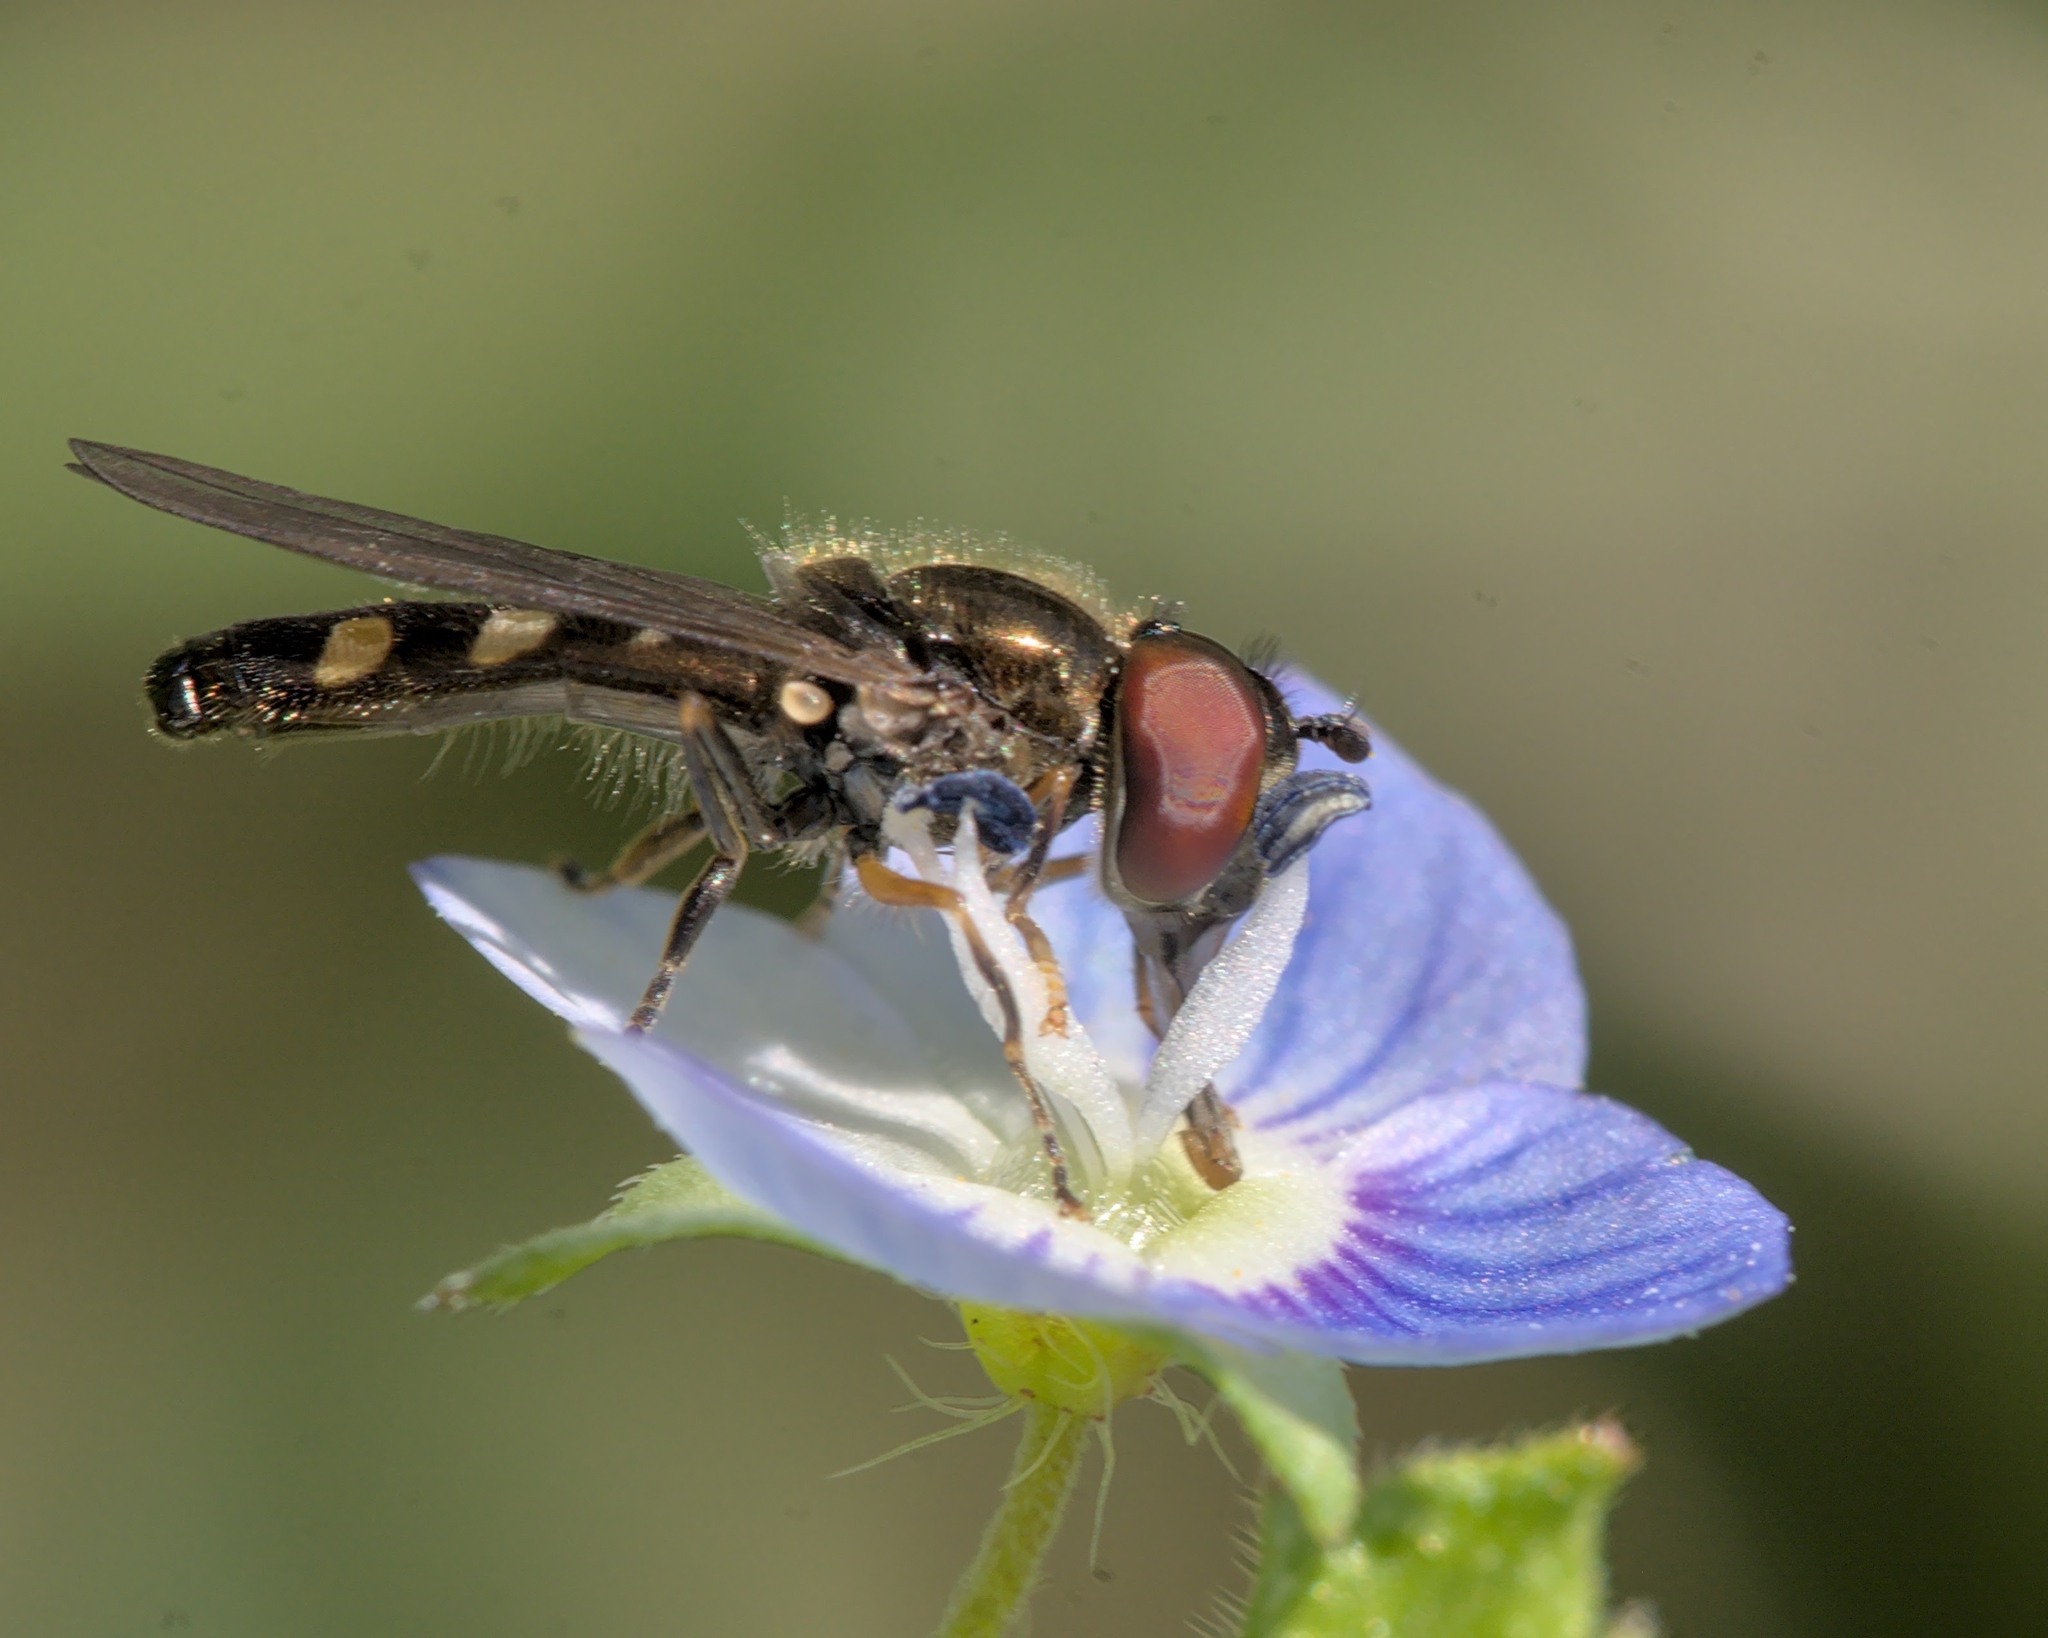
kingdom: Animalia
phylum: Arthropoda
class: Insecta
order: Diptera
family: Syrphidae
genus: Meliscaeva
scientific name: Meliscaeva auricollis
